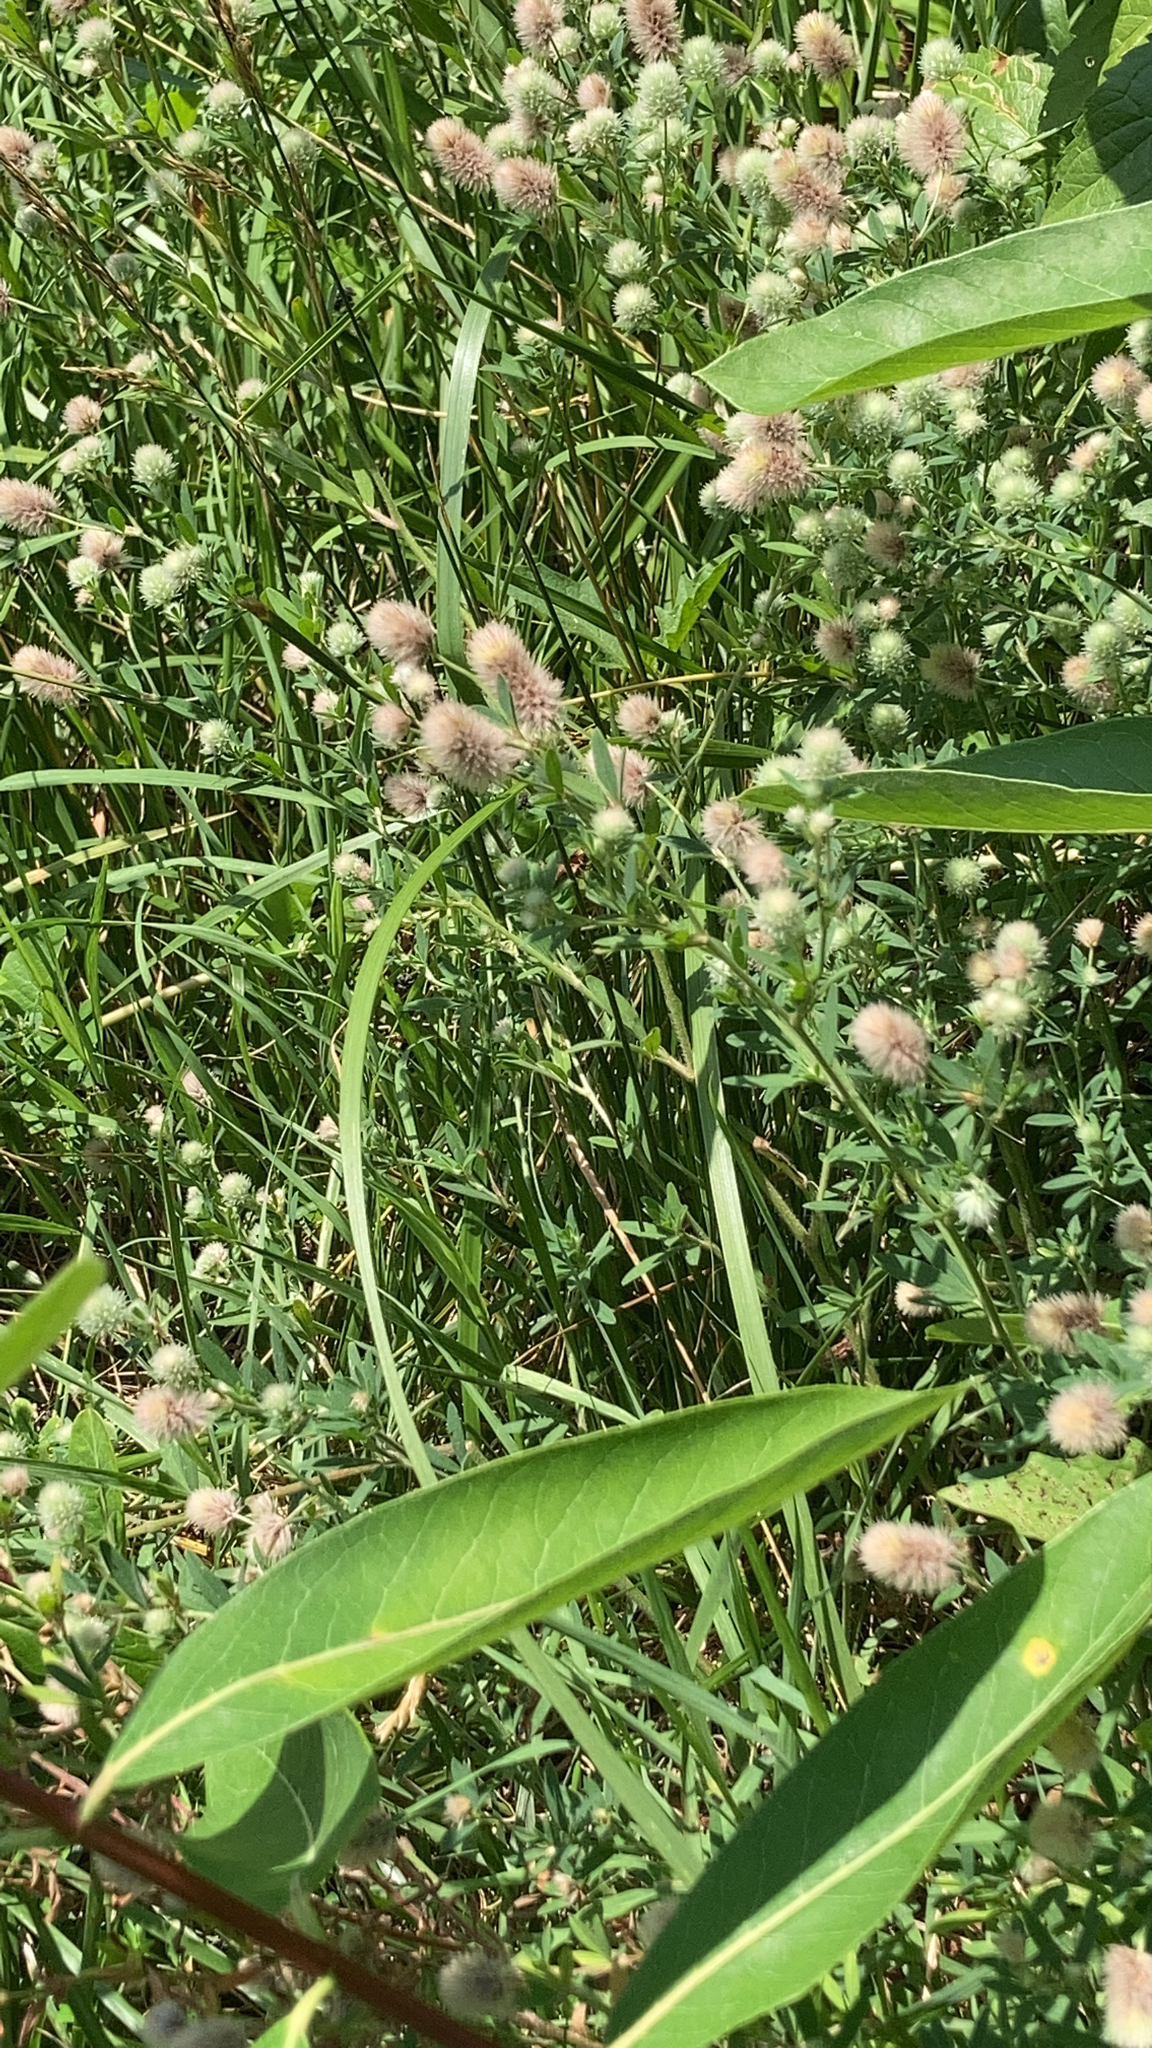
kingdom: Plantae
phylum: Tracheophyta
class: Magnoliopsida
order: Fabales
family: Fabaceae
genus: Trifolium
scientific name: Trifolium arvense
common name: Hare's-foot clover
